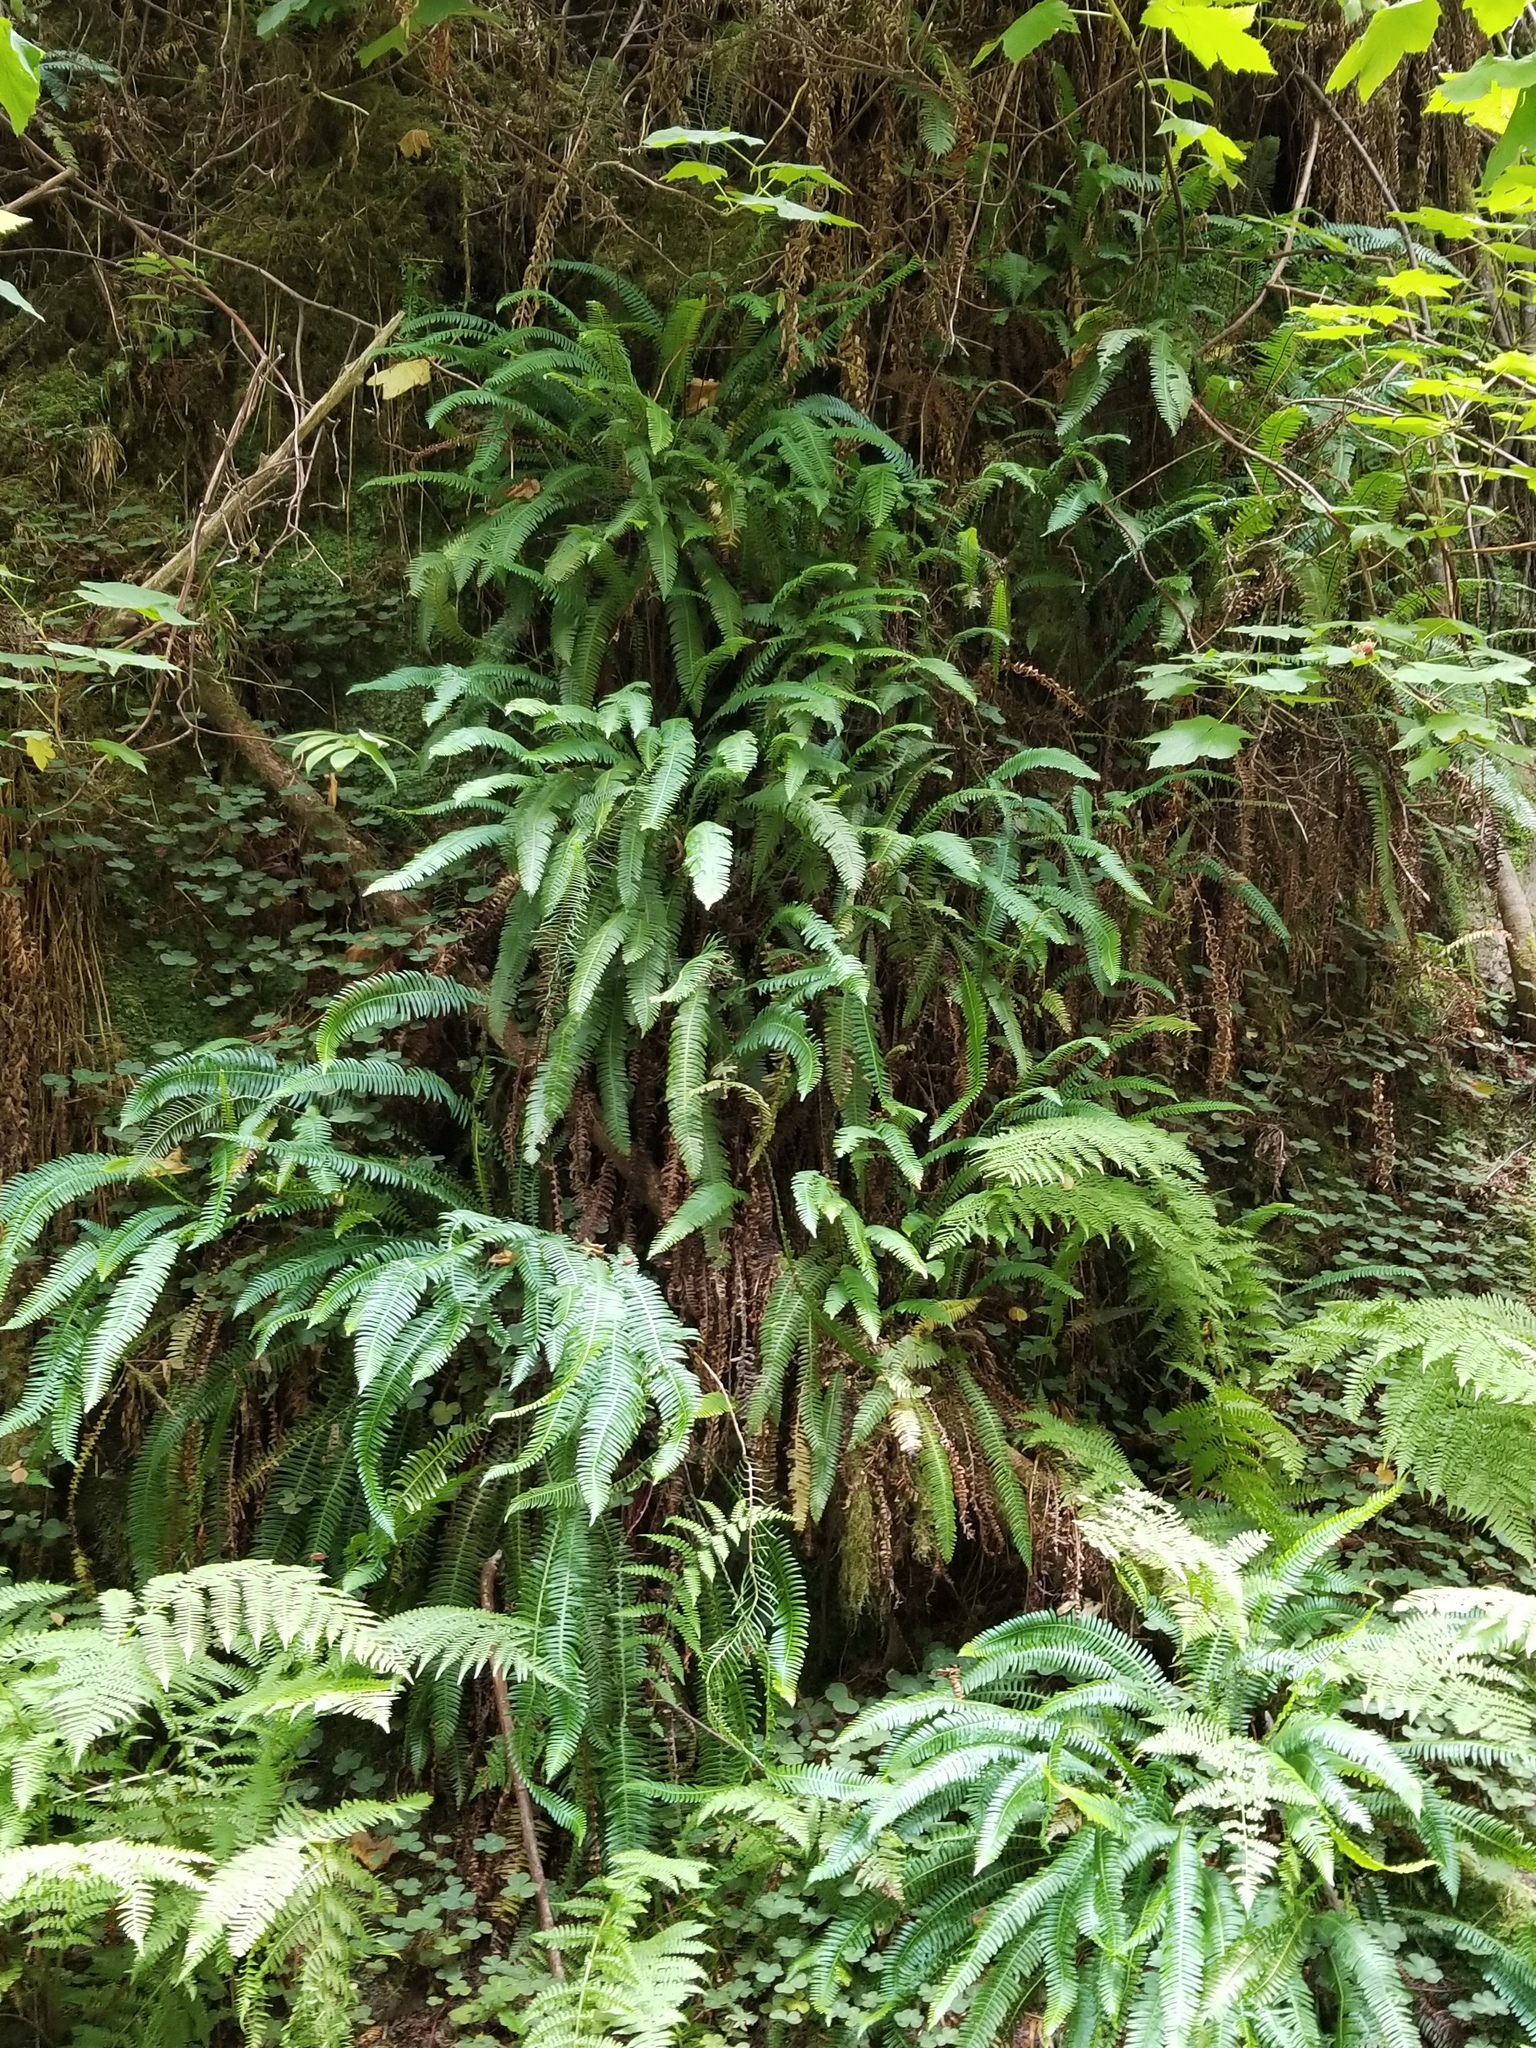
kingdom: Plantae
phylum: Tracheophyta
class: Polypodiopsida
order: Polypodiales
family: Blechnaceae
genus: Struthiopteris
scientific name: Struthiopteris spicant
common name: Deer fern
